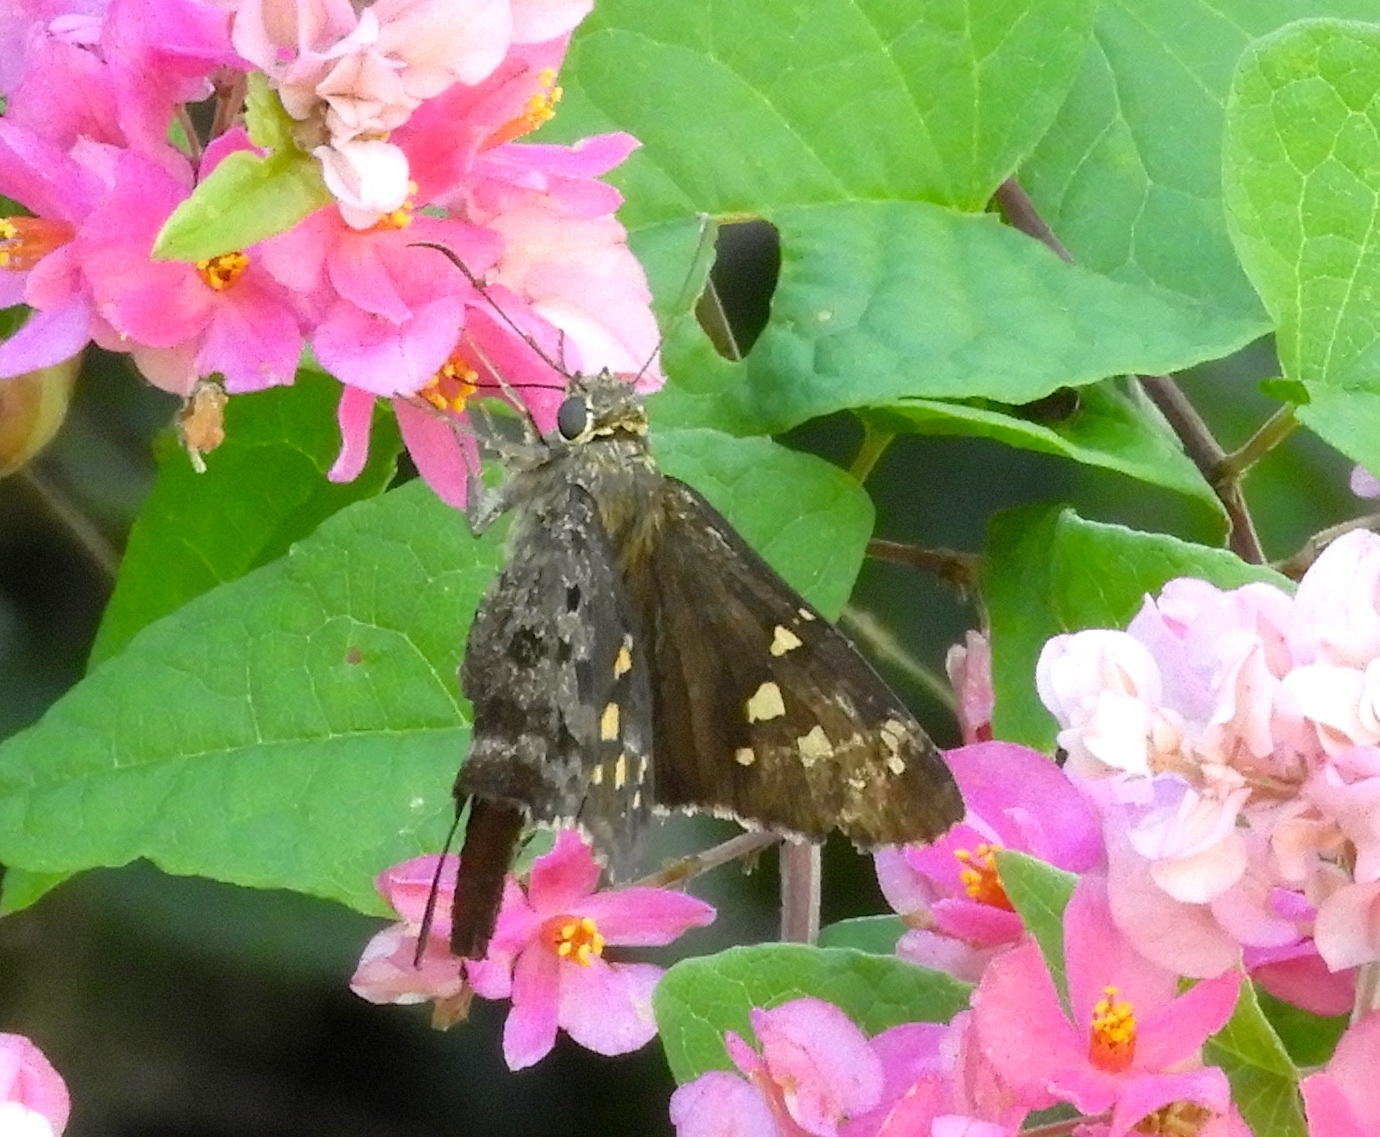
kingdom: Animalia
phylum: Arthropoda
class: Insecta
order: Lepidoptera
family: Hesperiidae
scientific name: Hesperiidae
